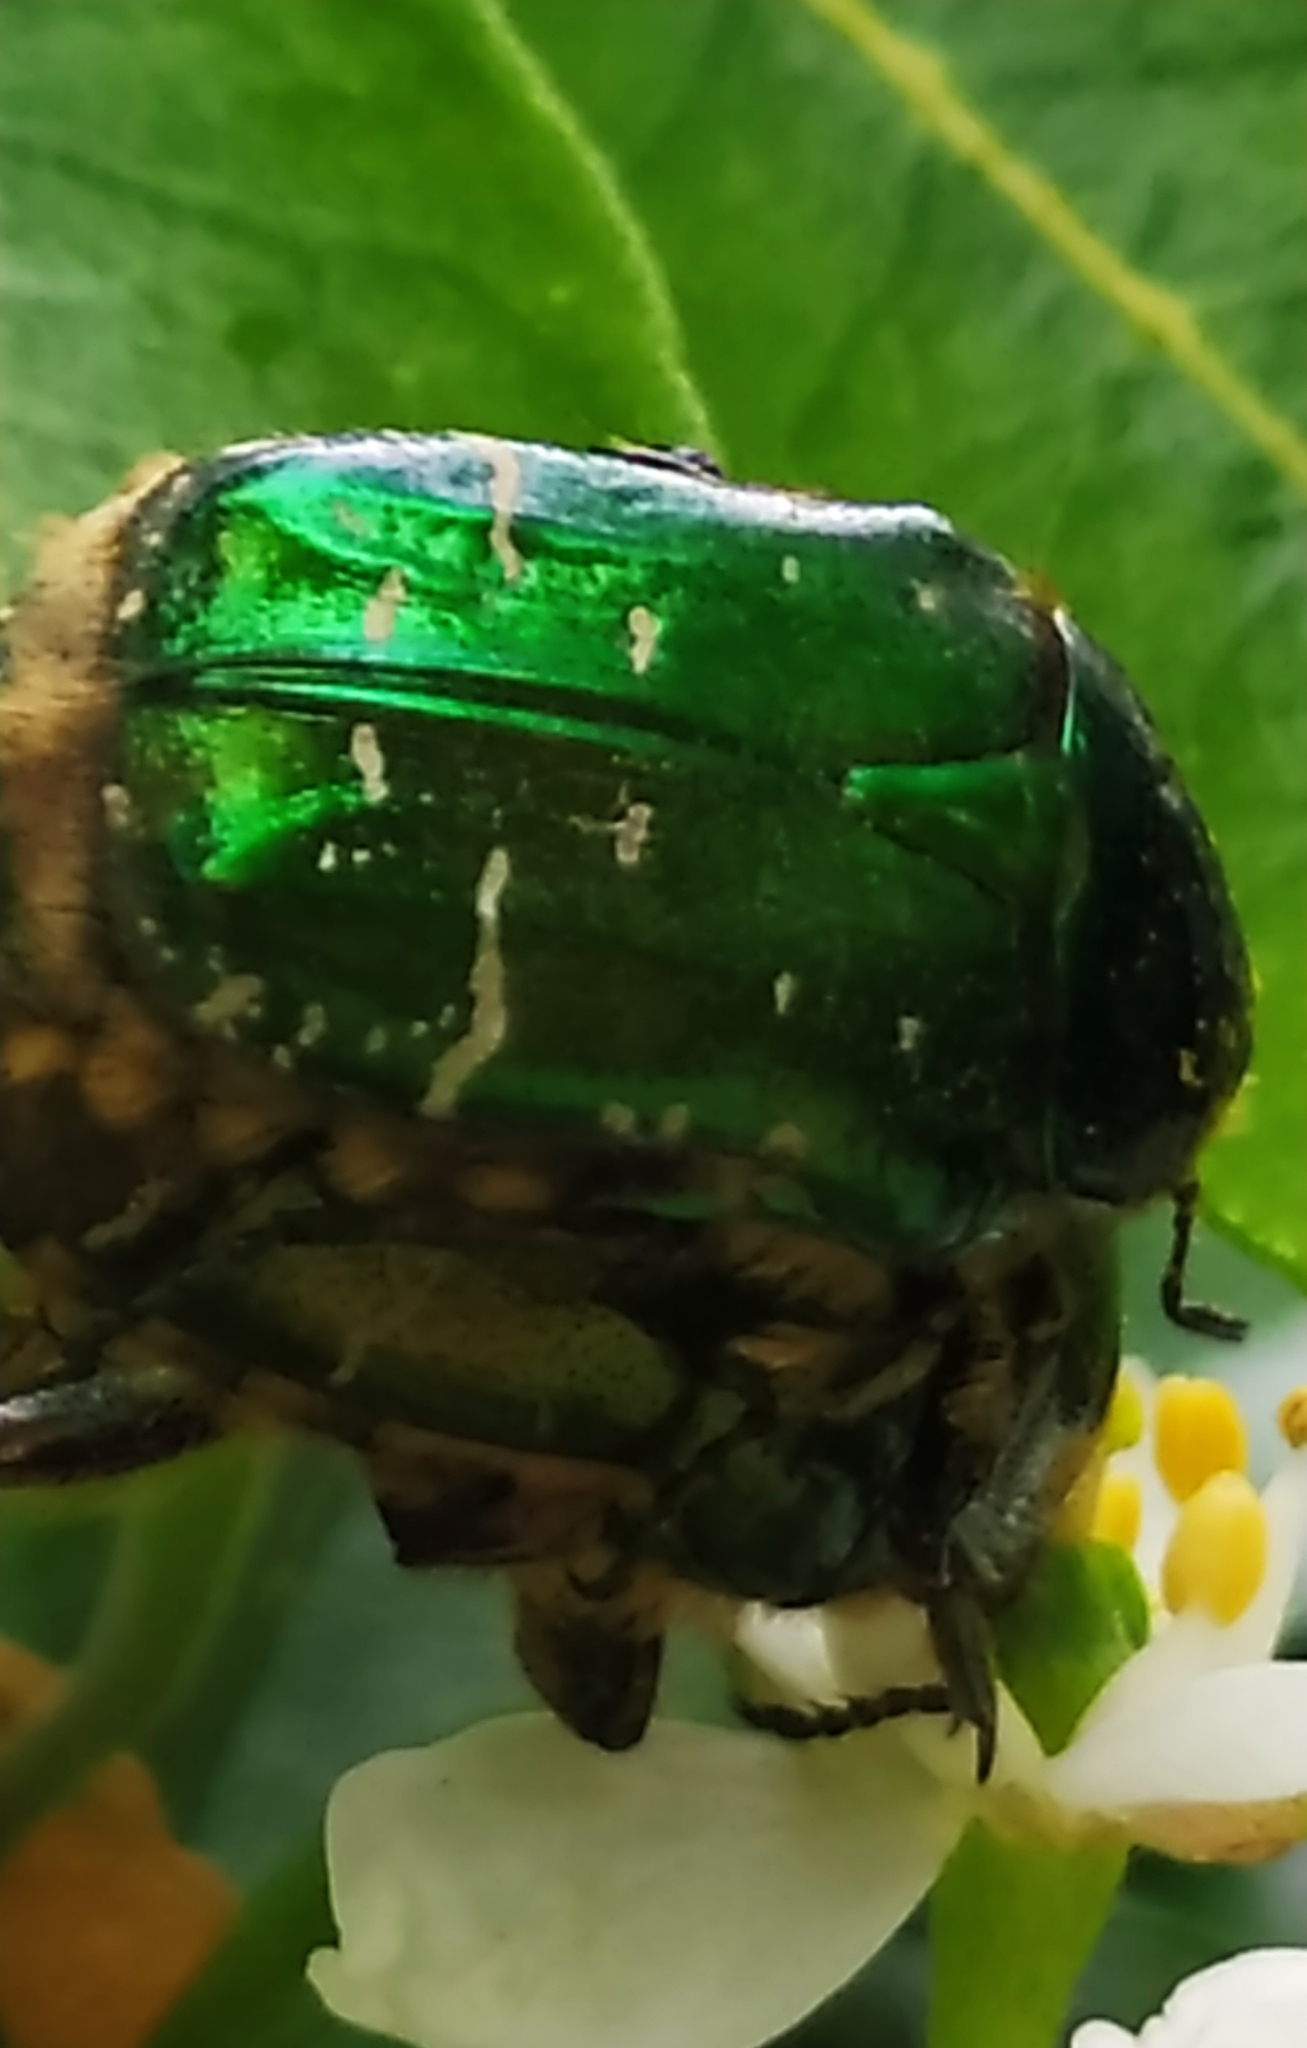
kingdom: Animalia
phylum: Arthropoda
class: Insecta
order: Coleoptera
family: Scarabaeidae
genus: Cetonia
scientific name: Cetonia aurata
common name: Rose chafer
